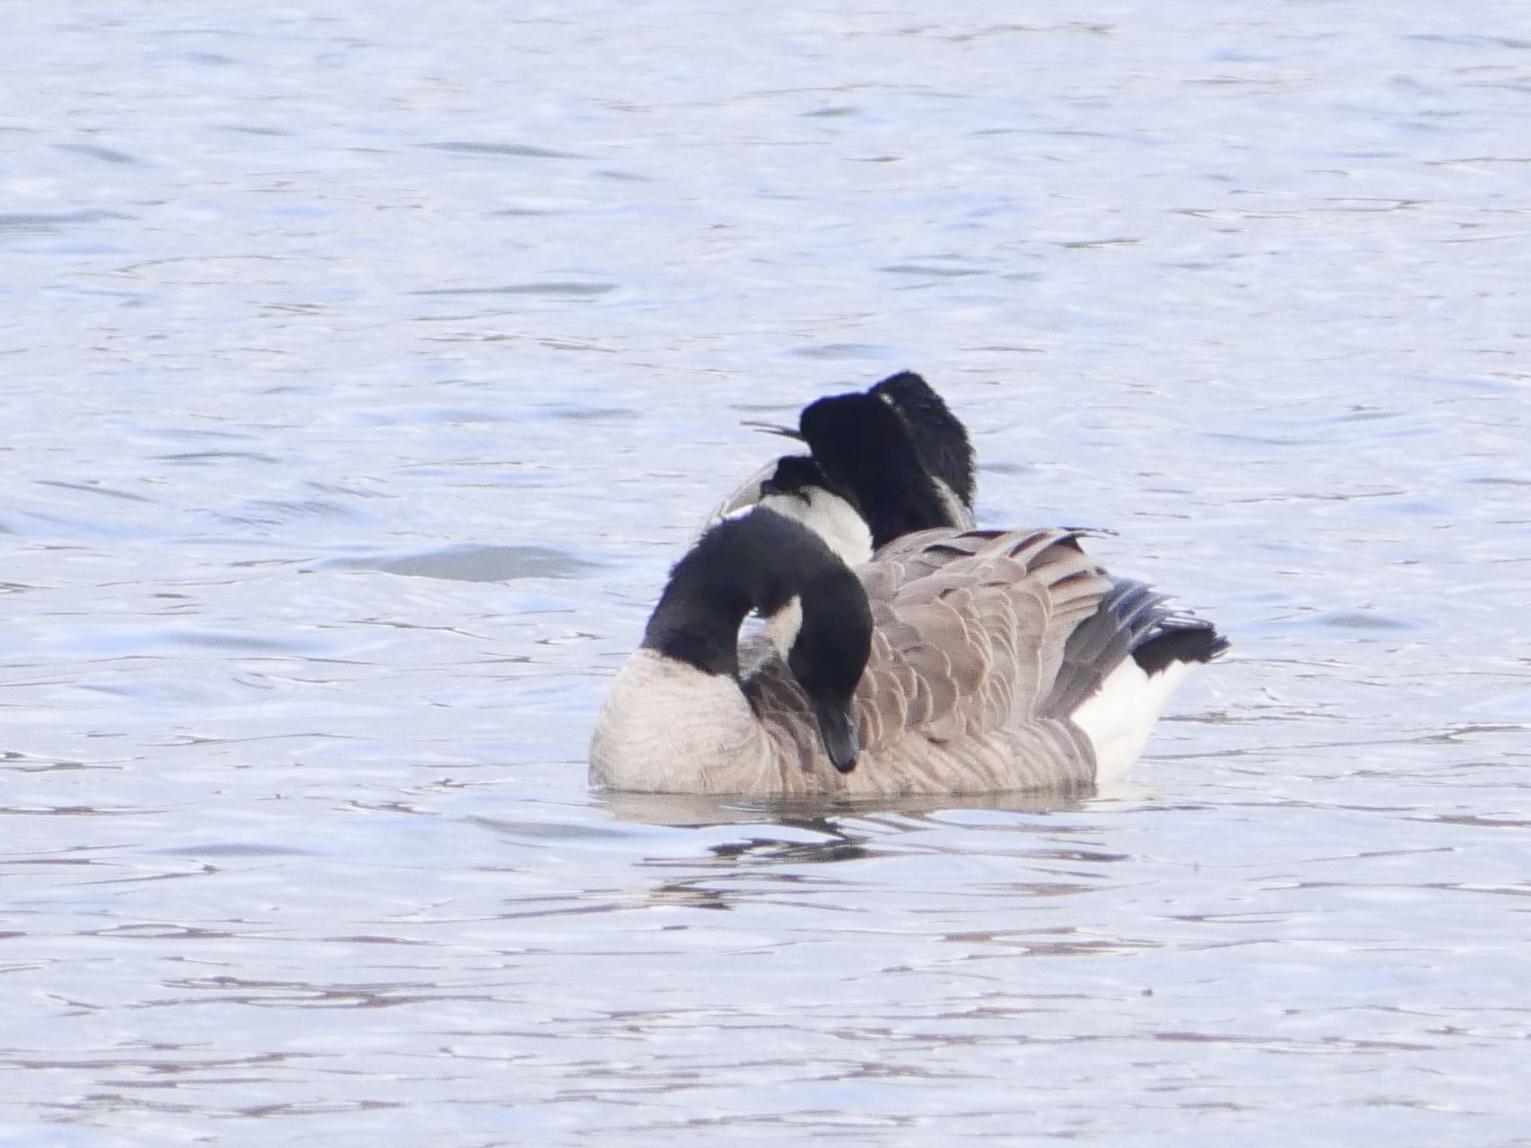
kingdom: Animalia
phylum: Chordata
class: Aves
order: Anseriformes
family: Anatidae
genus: Branta
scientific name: Branta canadensis
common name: Canada goose
